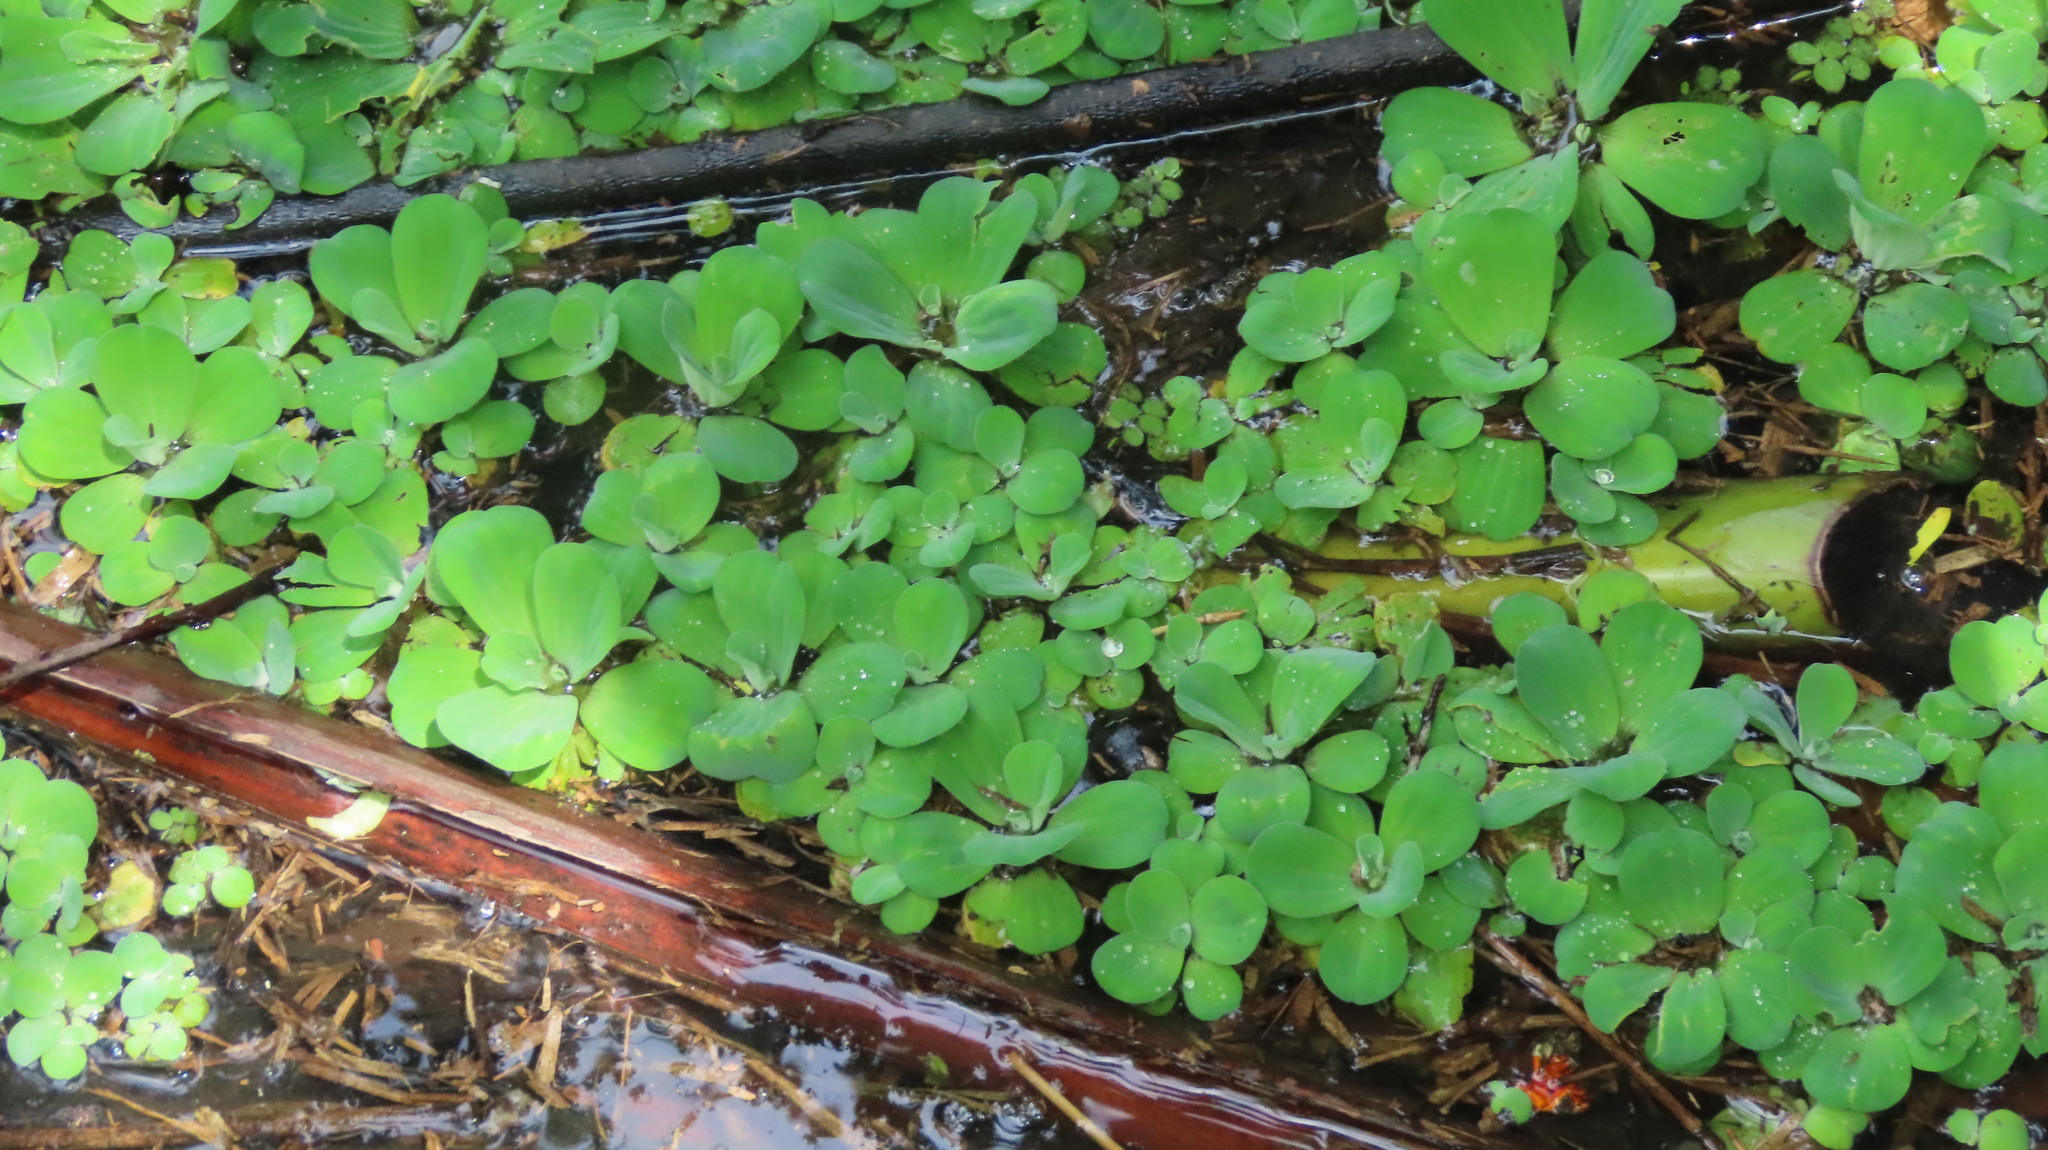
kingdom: Plantae
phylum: Tracheophyta
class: Liliopsida
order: Alismatales
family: Araceae
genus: Pistia
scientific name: Pistia stratiotes
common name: Water lettuce
